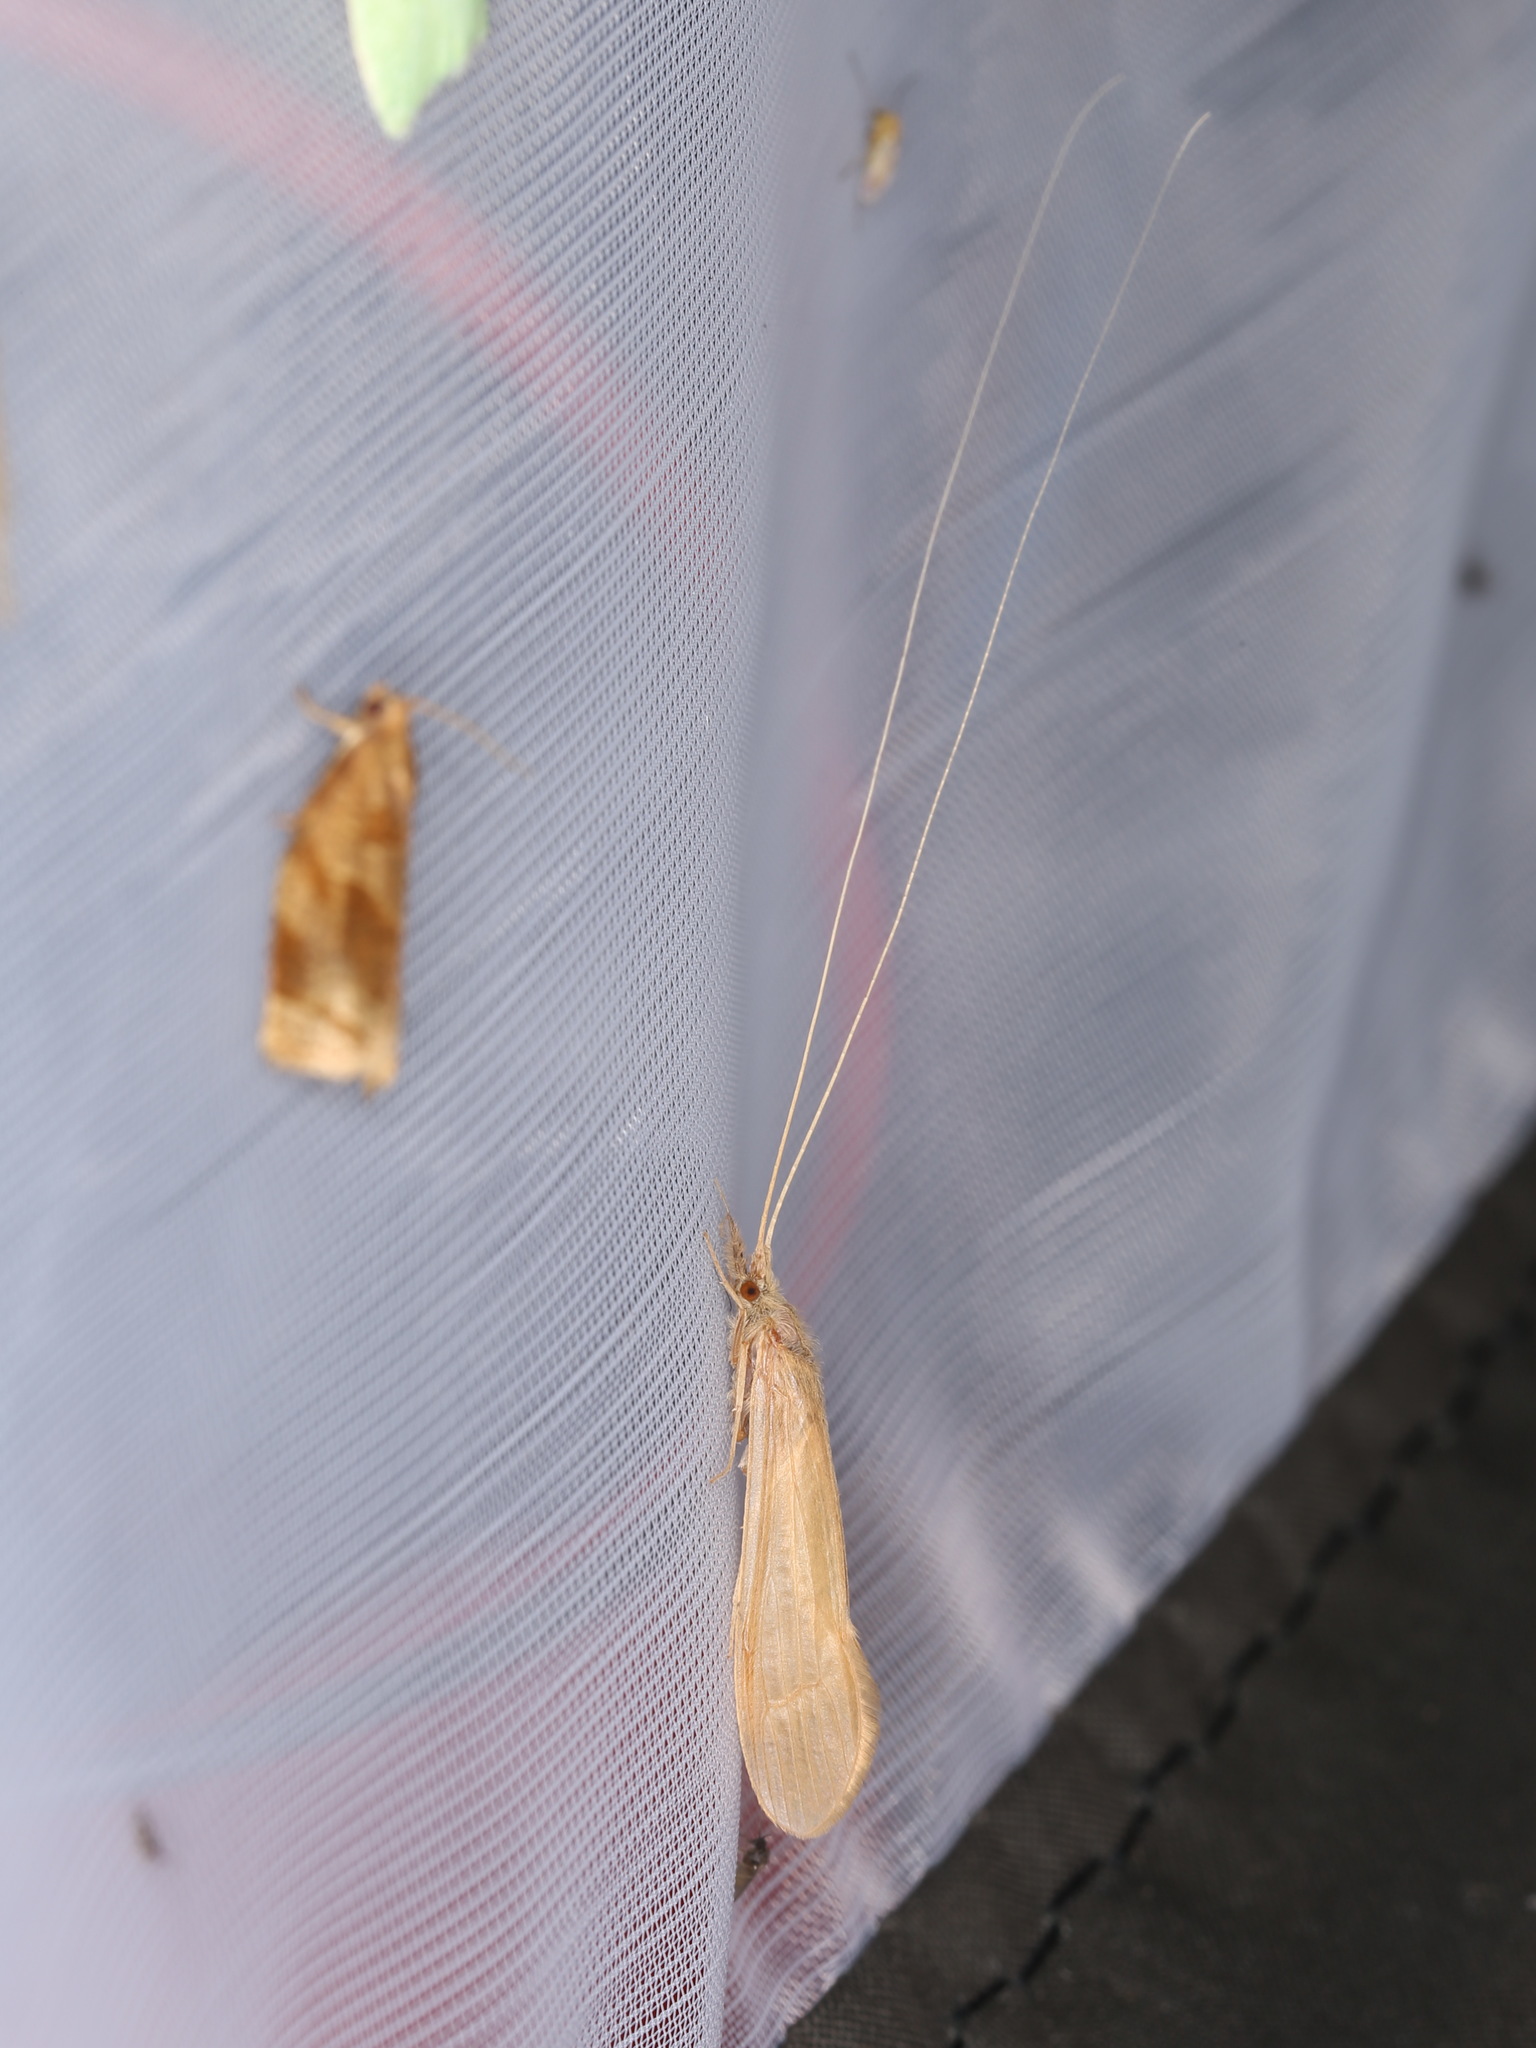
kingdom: Animalia
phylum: Arthropoda
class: Insecta
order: Trichoptera
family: Leptoceridae
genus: Oecetis
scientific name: Oecetis ochracea
